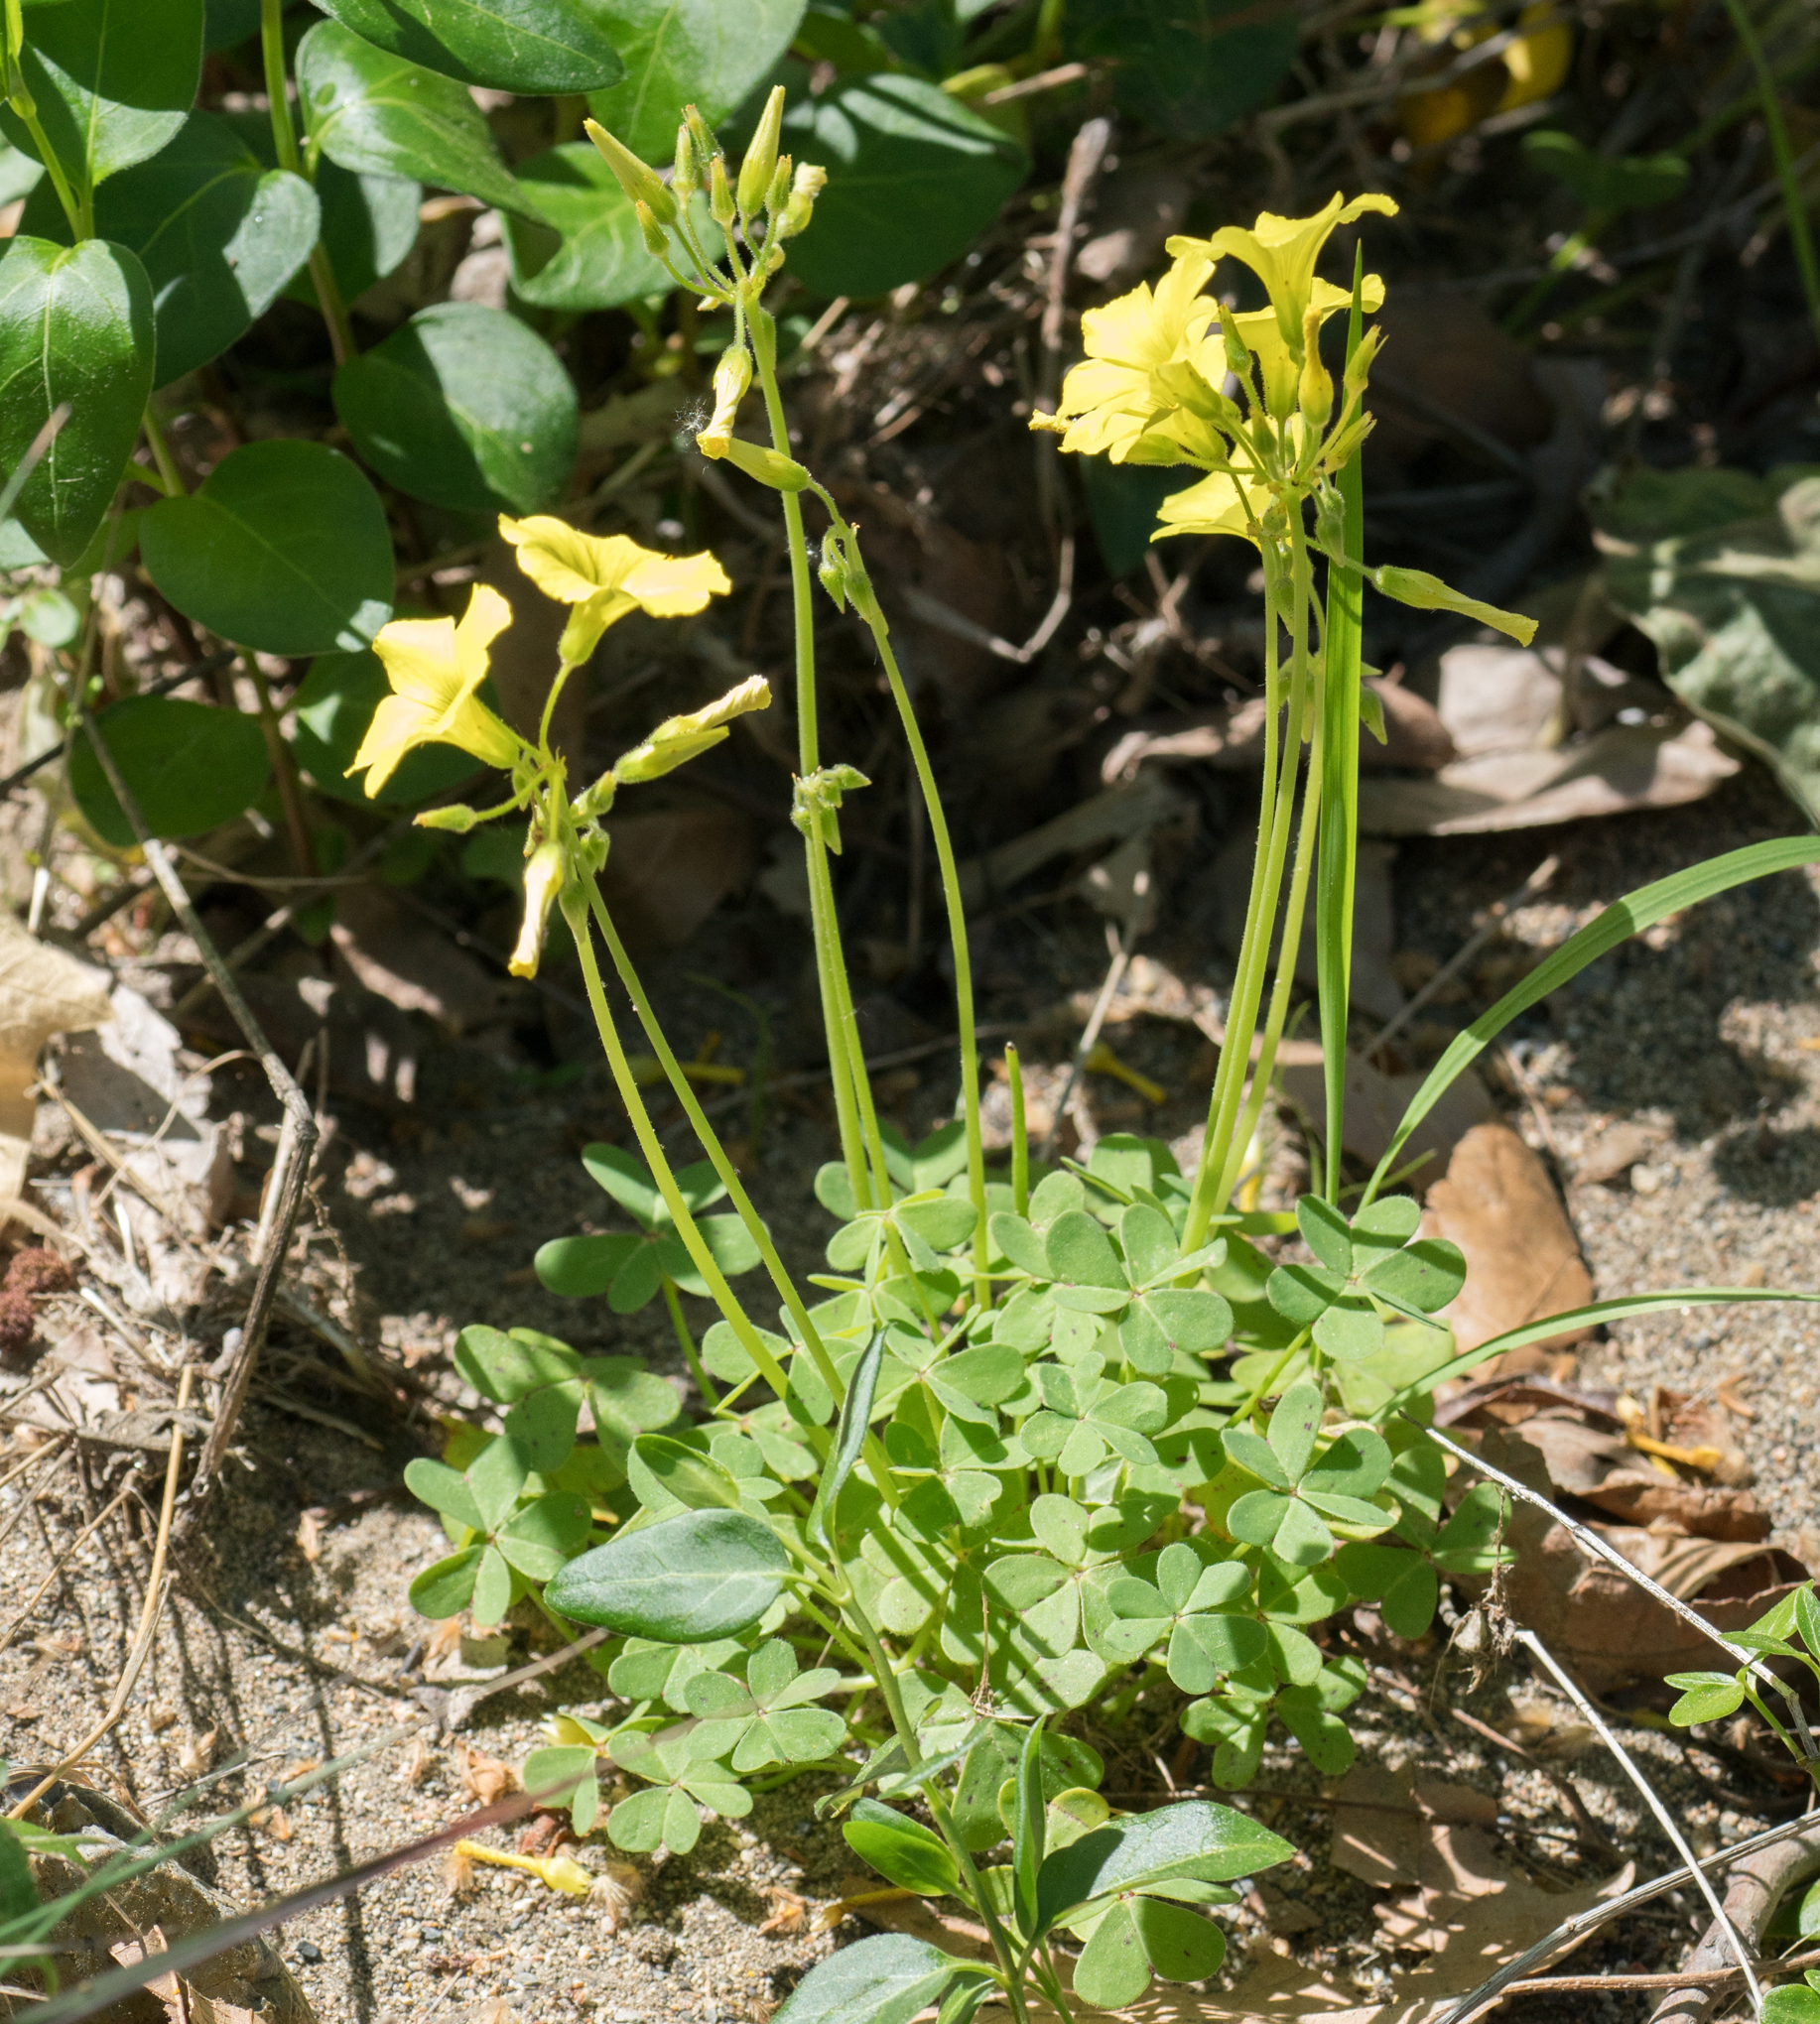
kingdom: Plantae
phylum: Tracheophyta
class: Magnoliopsida
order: Oxalidales
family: Oxalidaceae
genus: Oxalis
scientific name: Oxalis pes-caprae
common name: Bermuda-buttercup
